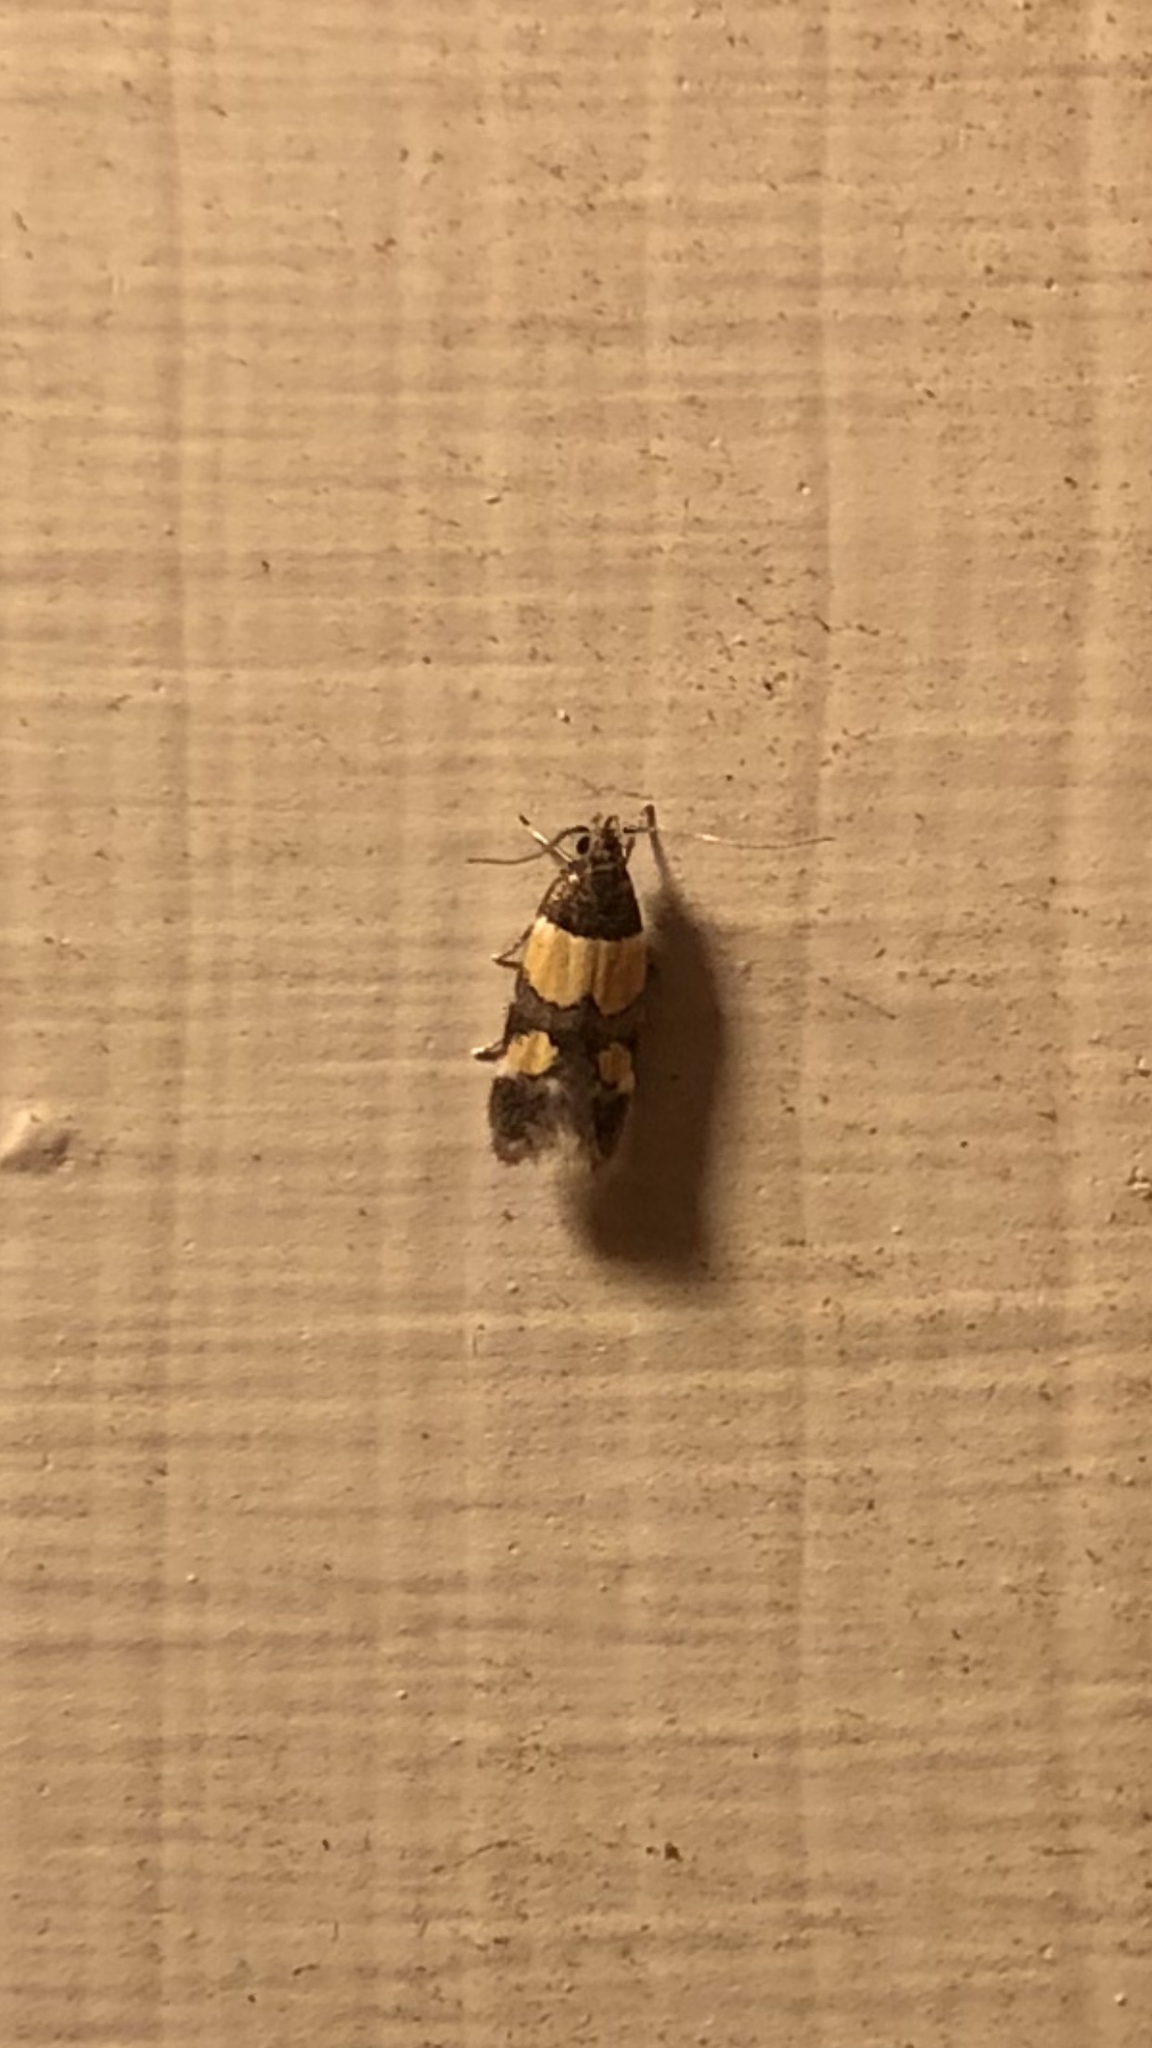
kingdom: Animalia
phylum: Arthropoda
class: Insecta
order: Lepidoptera
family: Momphidae
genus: Triclonella
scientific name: Triclonella determinatella
